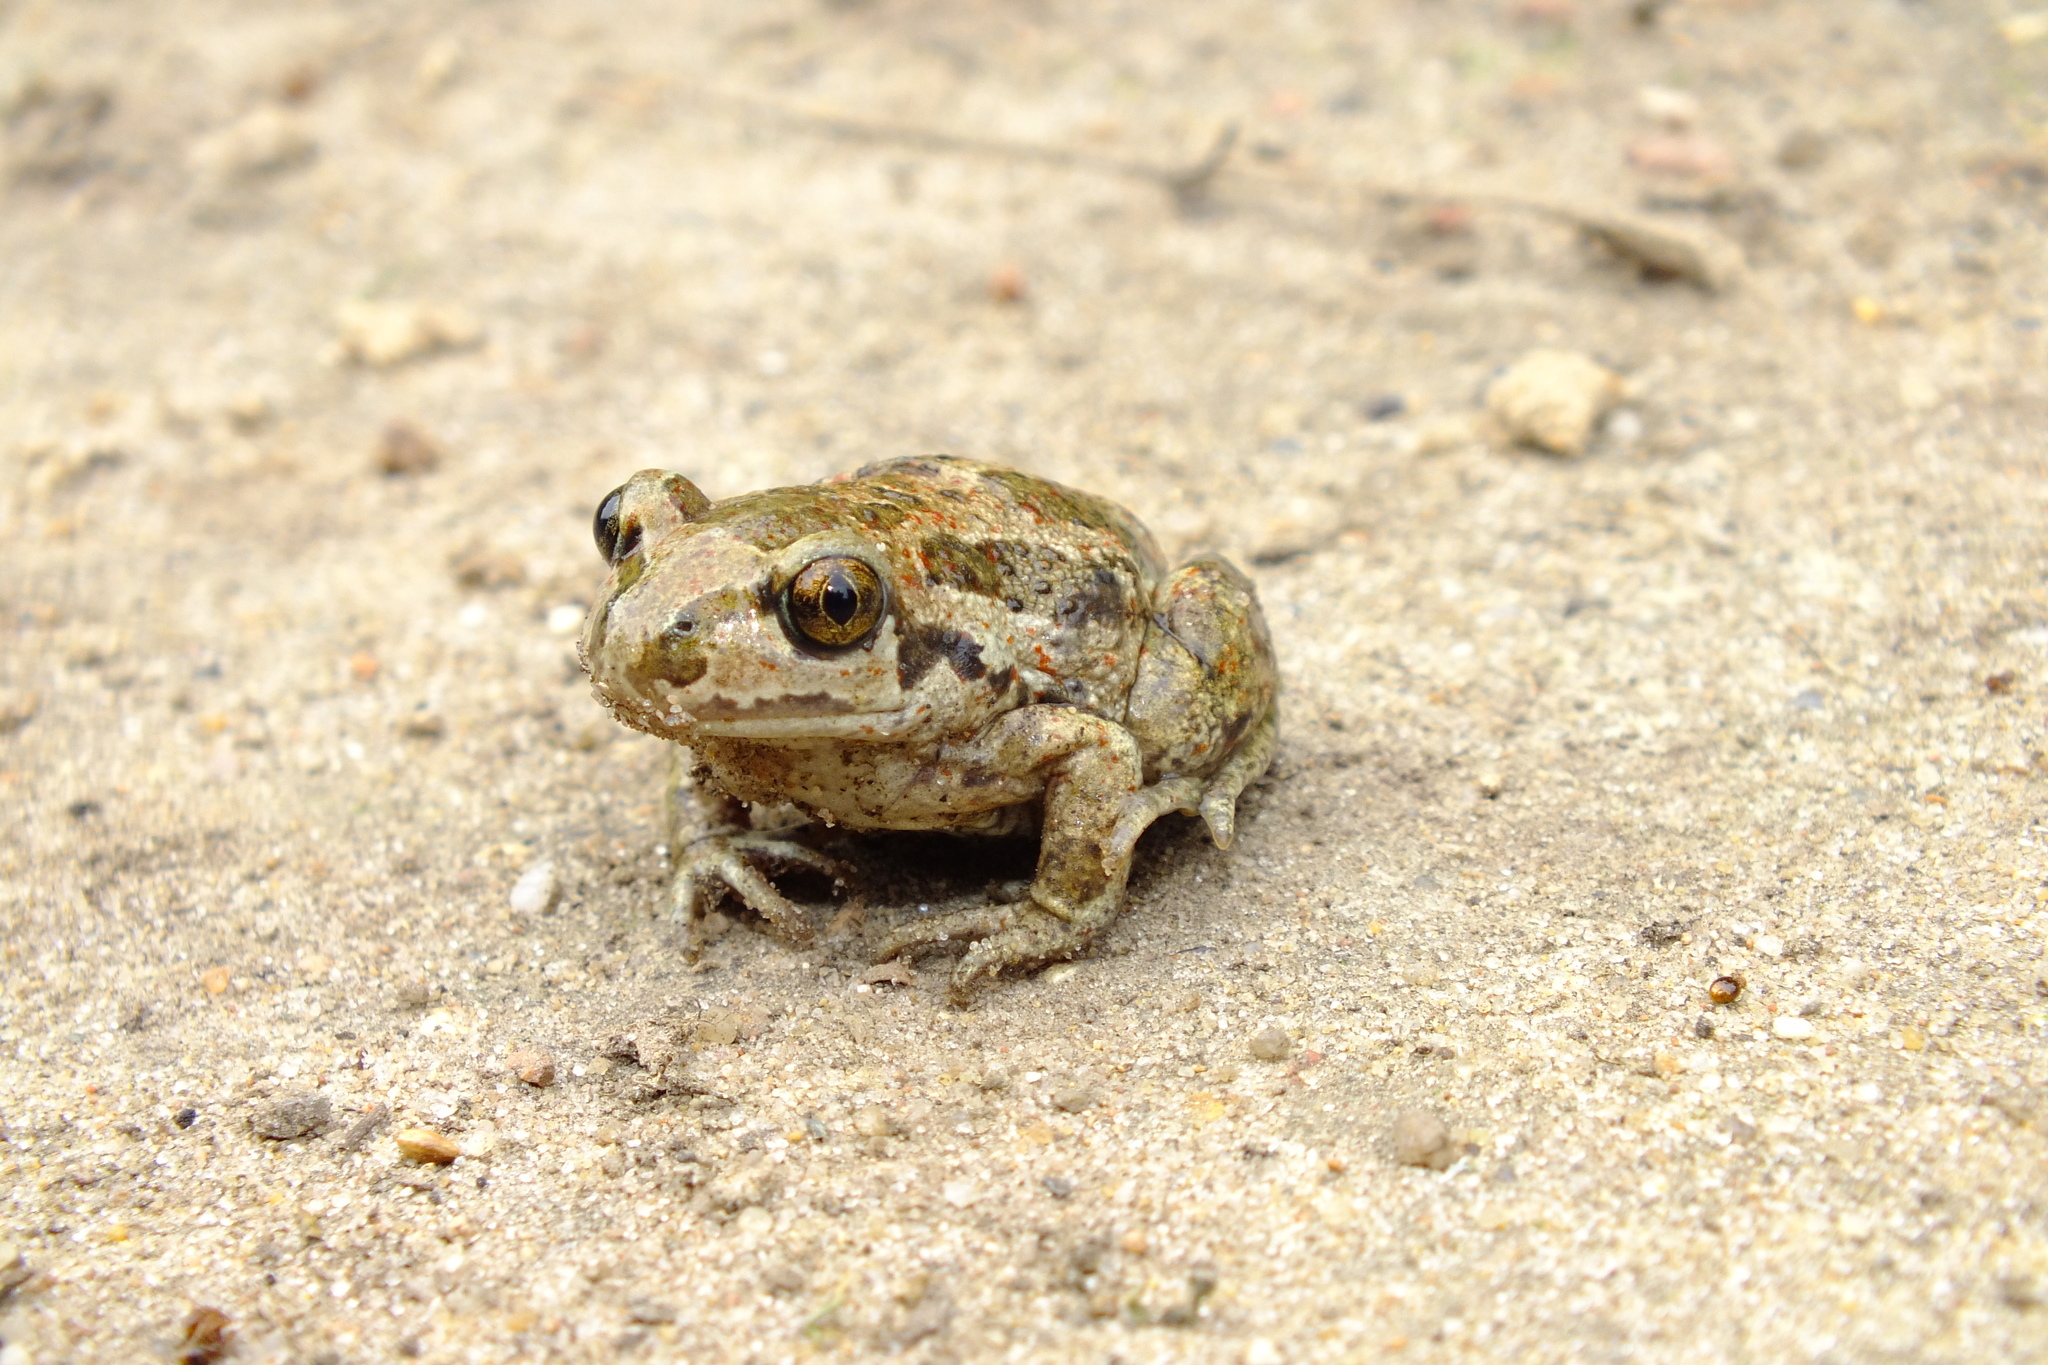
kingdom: Animalia
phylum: Chordata
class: Amphibia
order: Anura
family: Pelobatidae
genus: Pelobates
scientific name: Pelobates fuscus
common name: Common eurasian spadefoot toad
